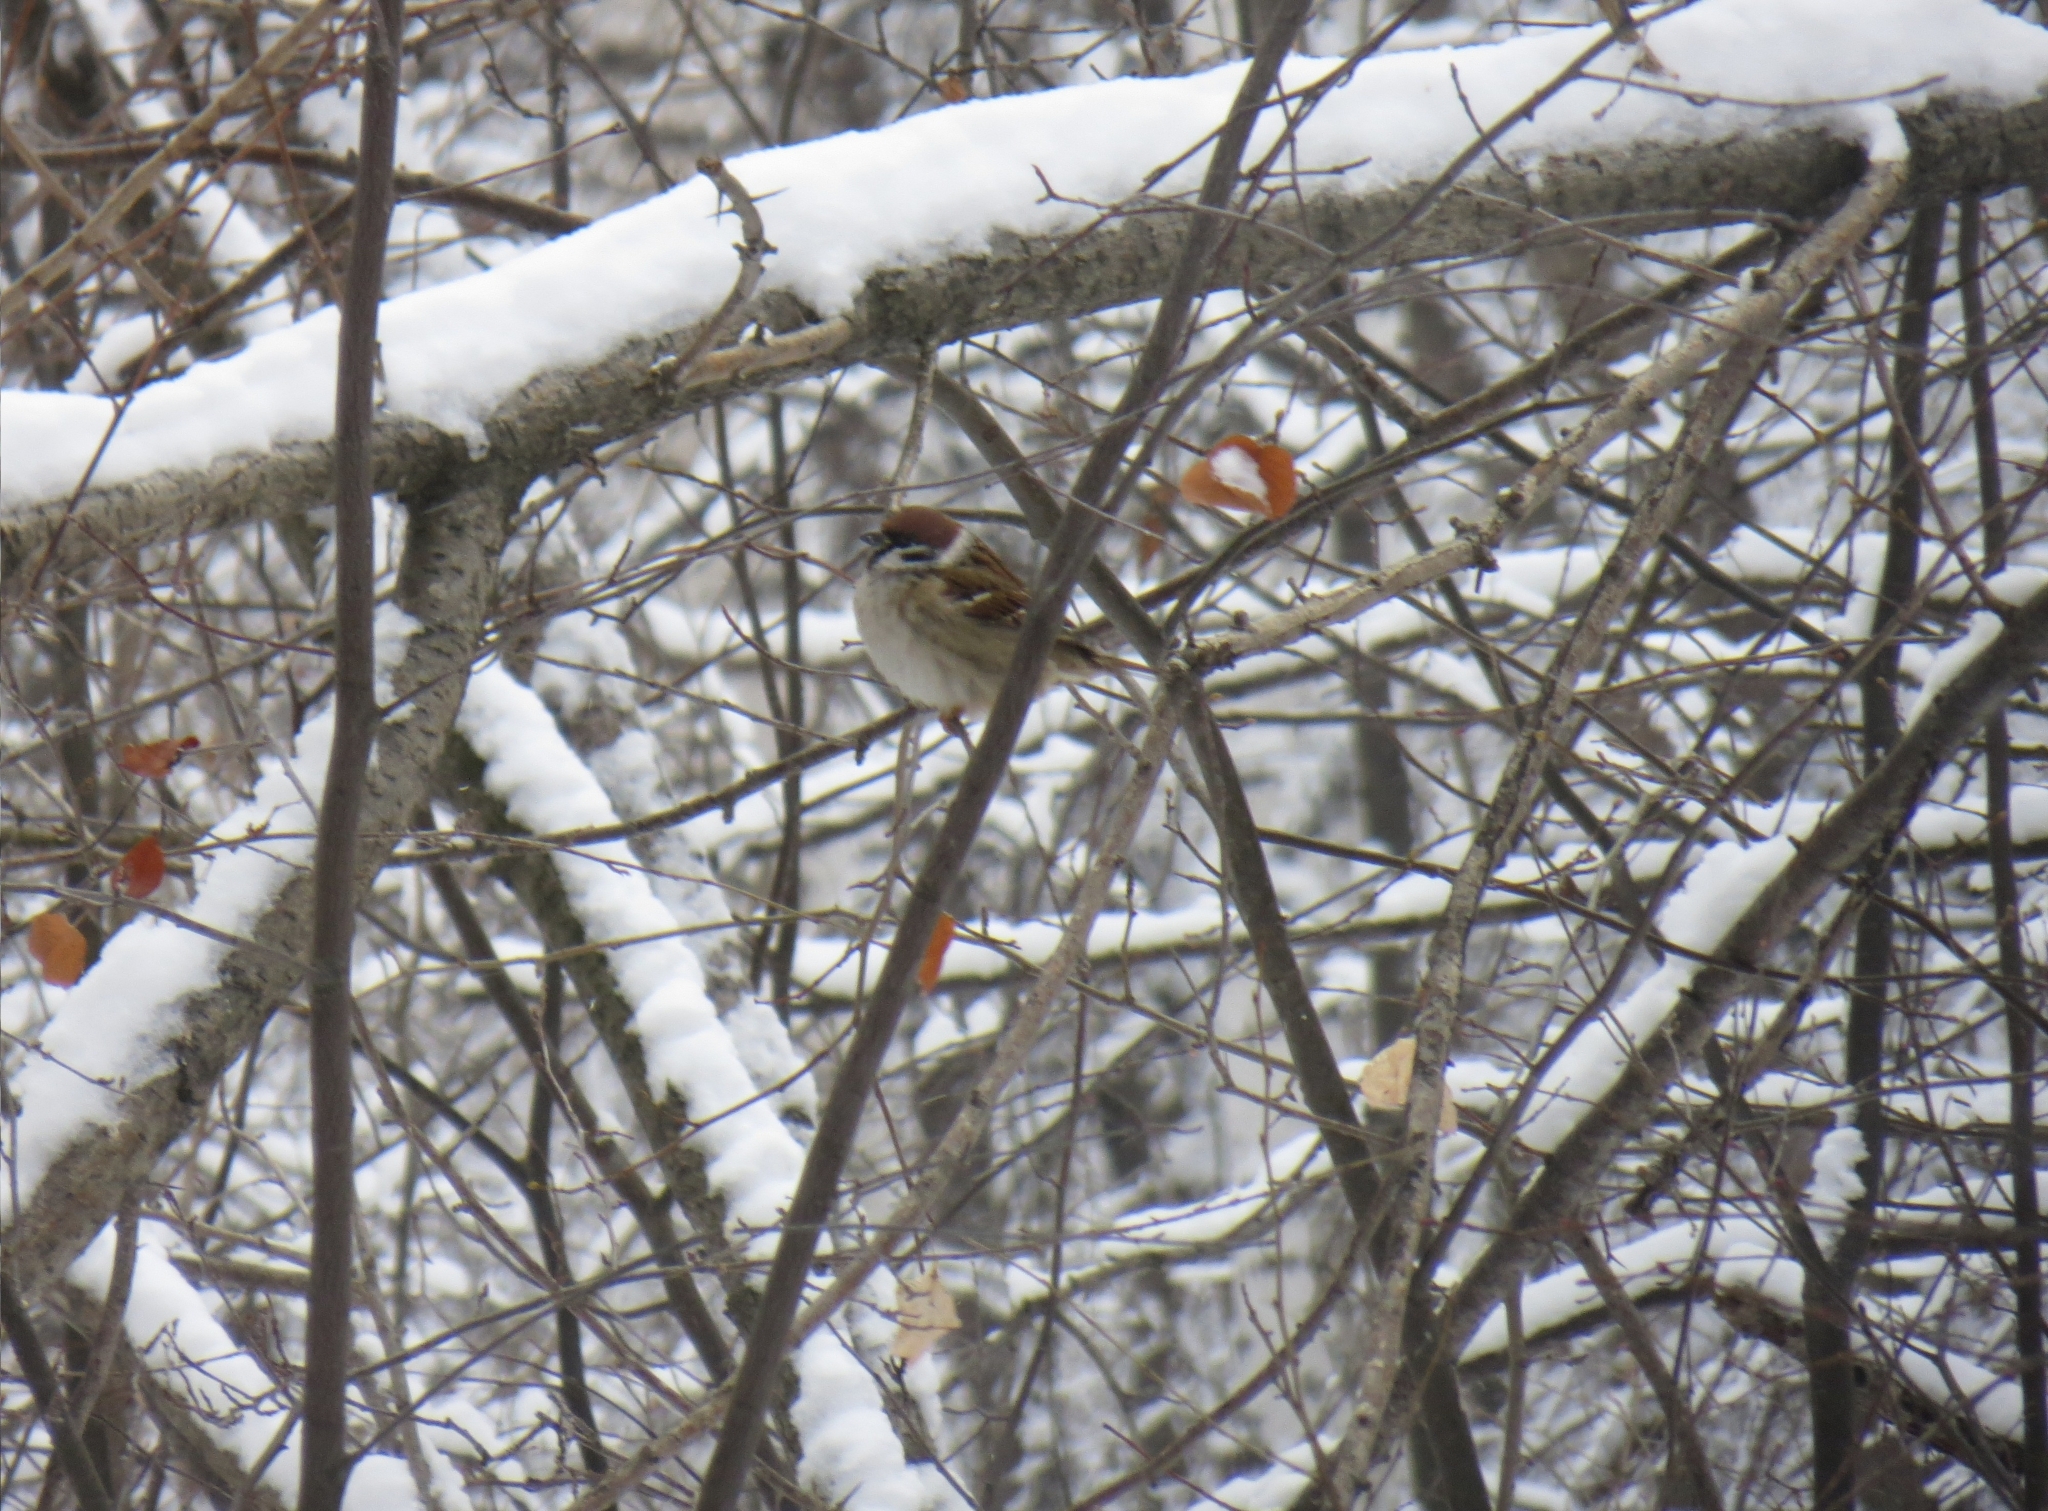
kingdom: Animalia
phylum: Chordata
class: Aves
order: Passeriformes
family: Passeridae
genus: Passer
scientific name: Passer montanus
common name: Eurasian tree sparrow
